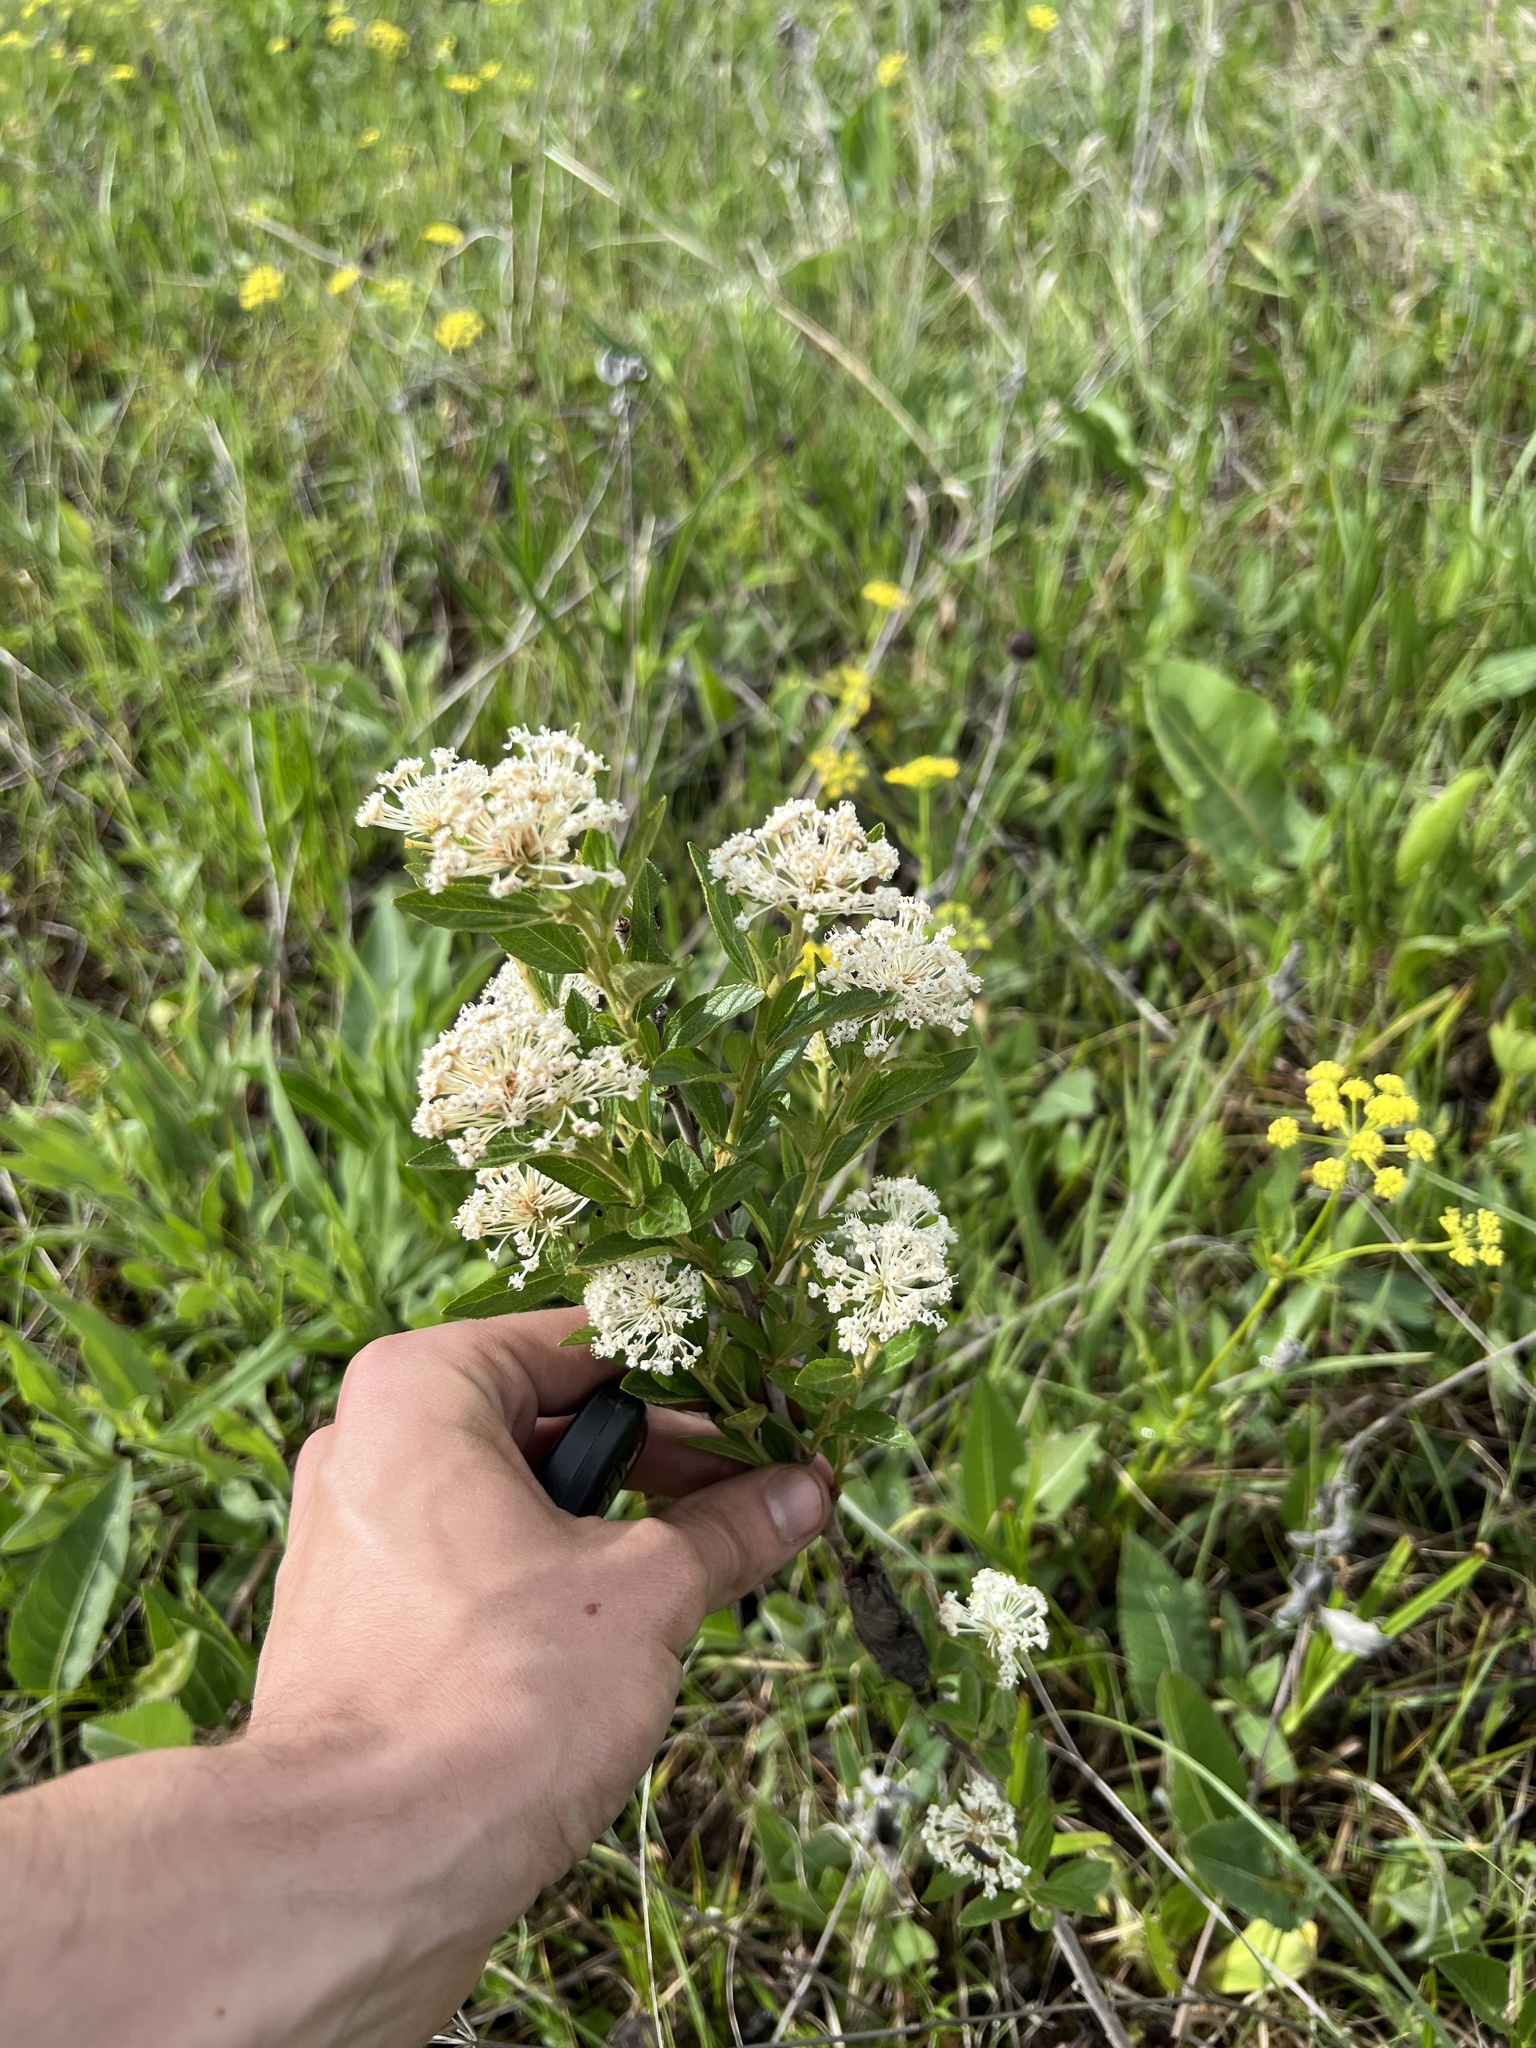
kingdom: Plantae
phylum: Tracheophyta
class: Magnoliopsida
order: Rosales
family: Rhamnaceae
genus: Ceanothus
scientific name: Ceanothus herbaceus
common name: Inland ceanothus
